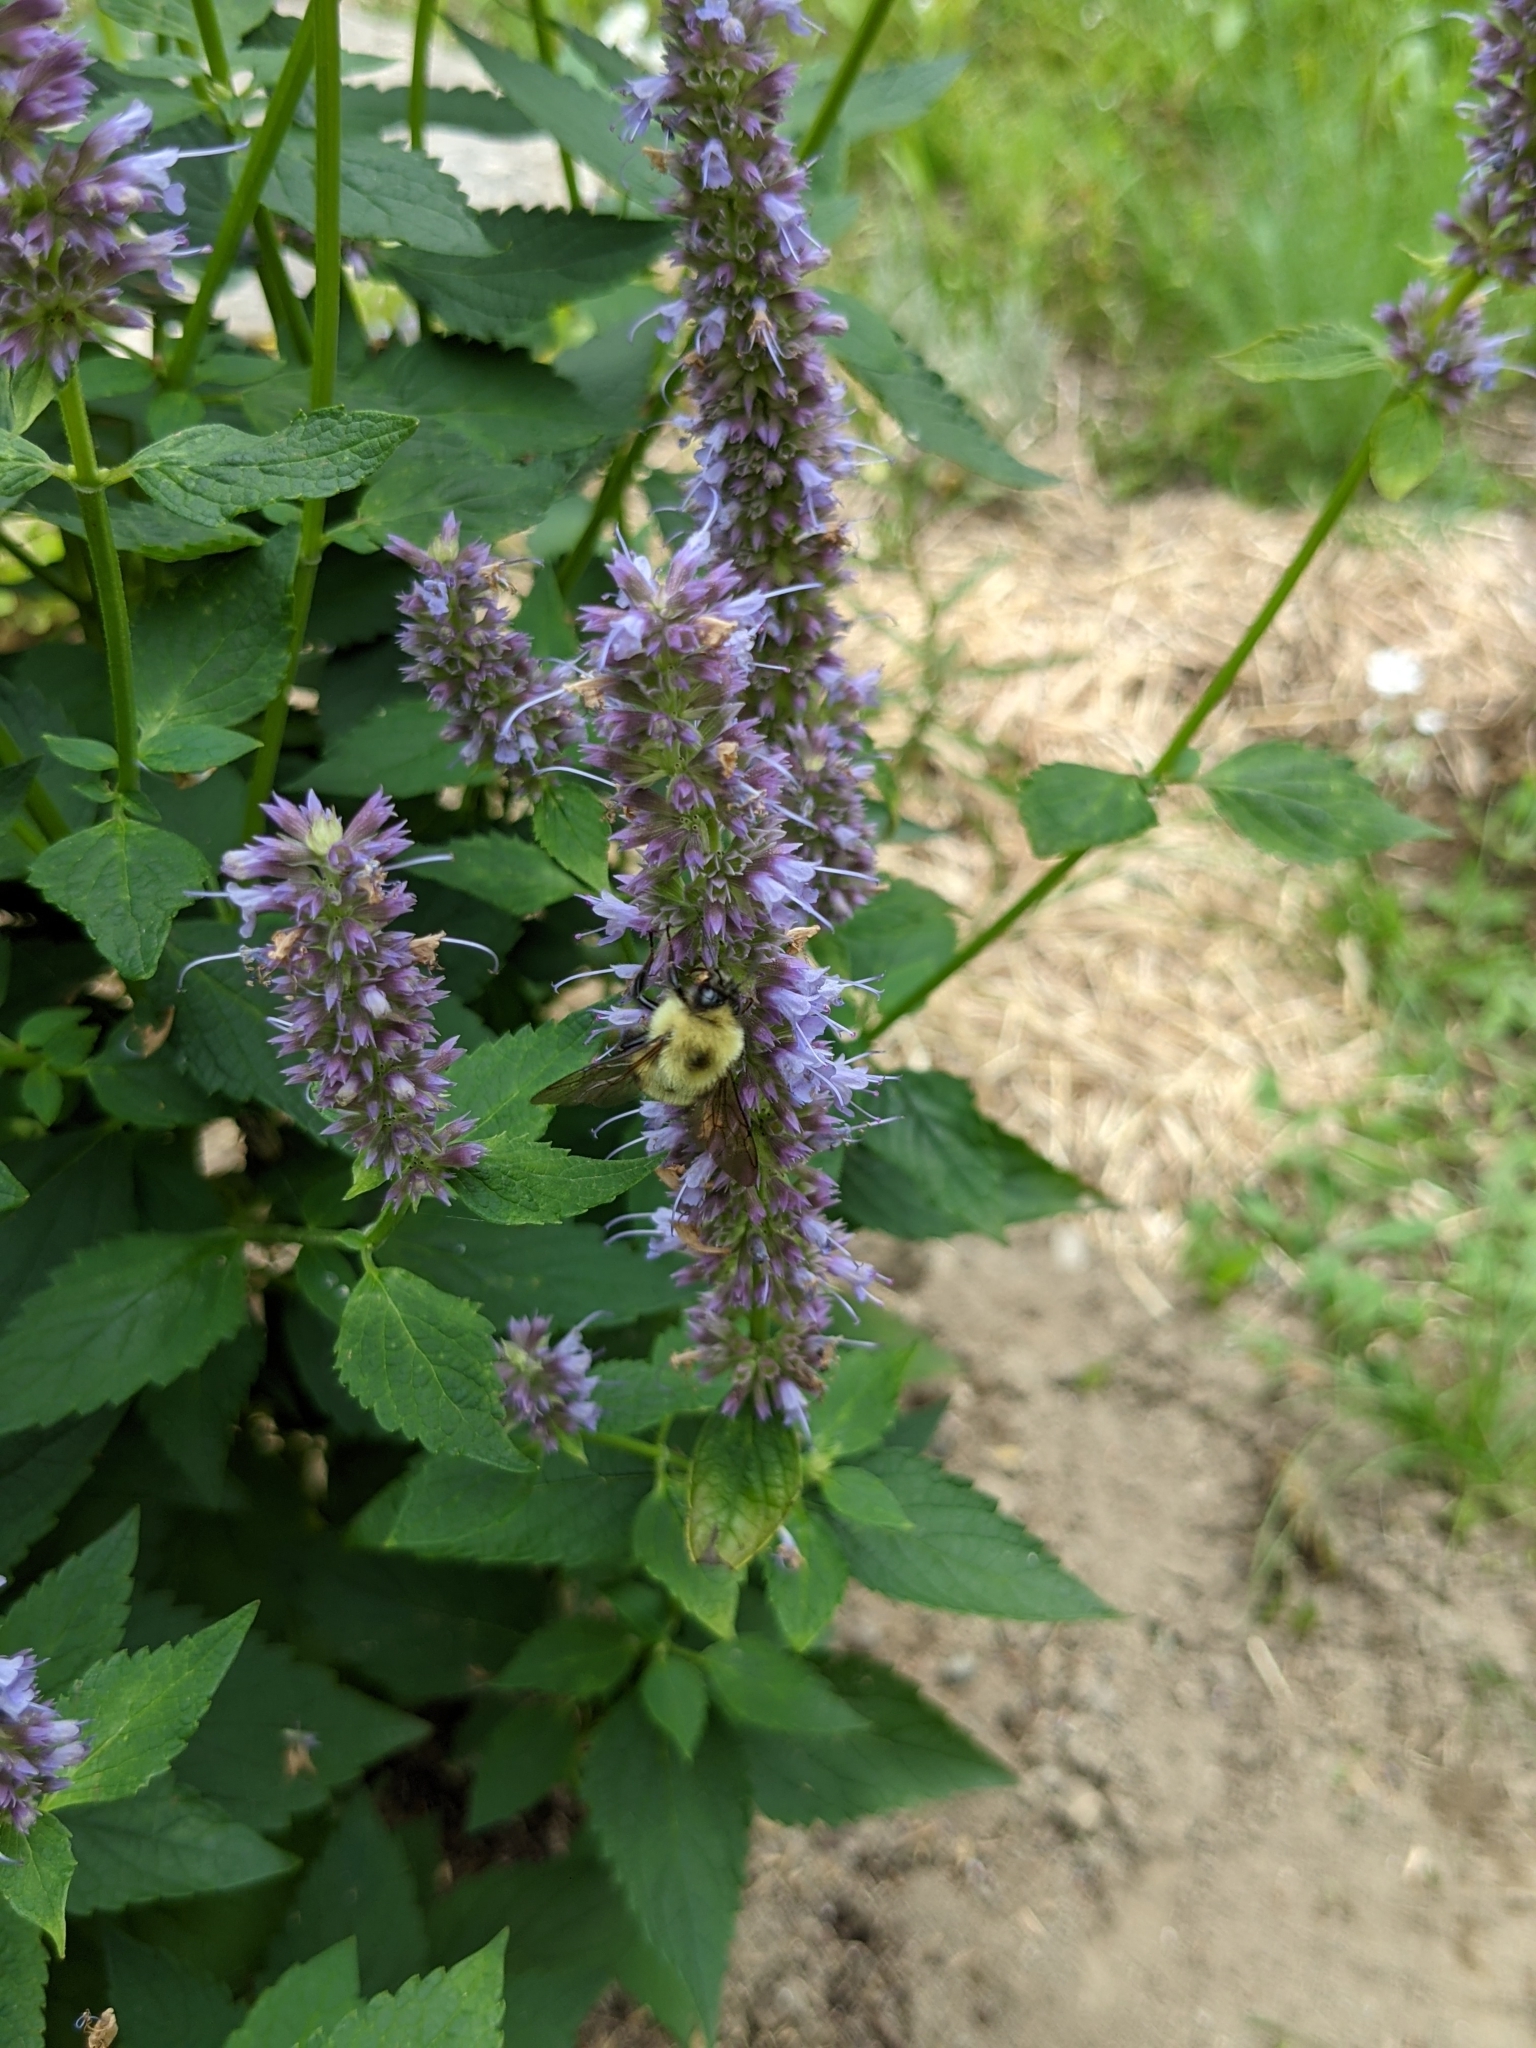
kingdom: Animalia
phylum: Arthropoda
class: Insecta
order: Hymenoptera
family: Apidae
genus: Bombus
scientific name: Bombus bimaculatus
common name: Two-spotted bumble bee
